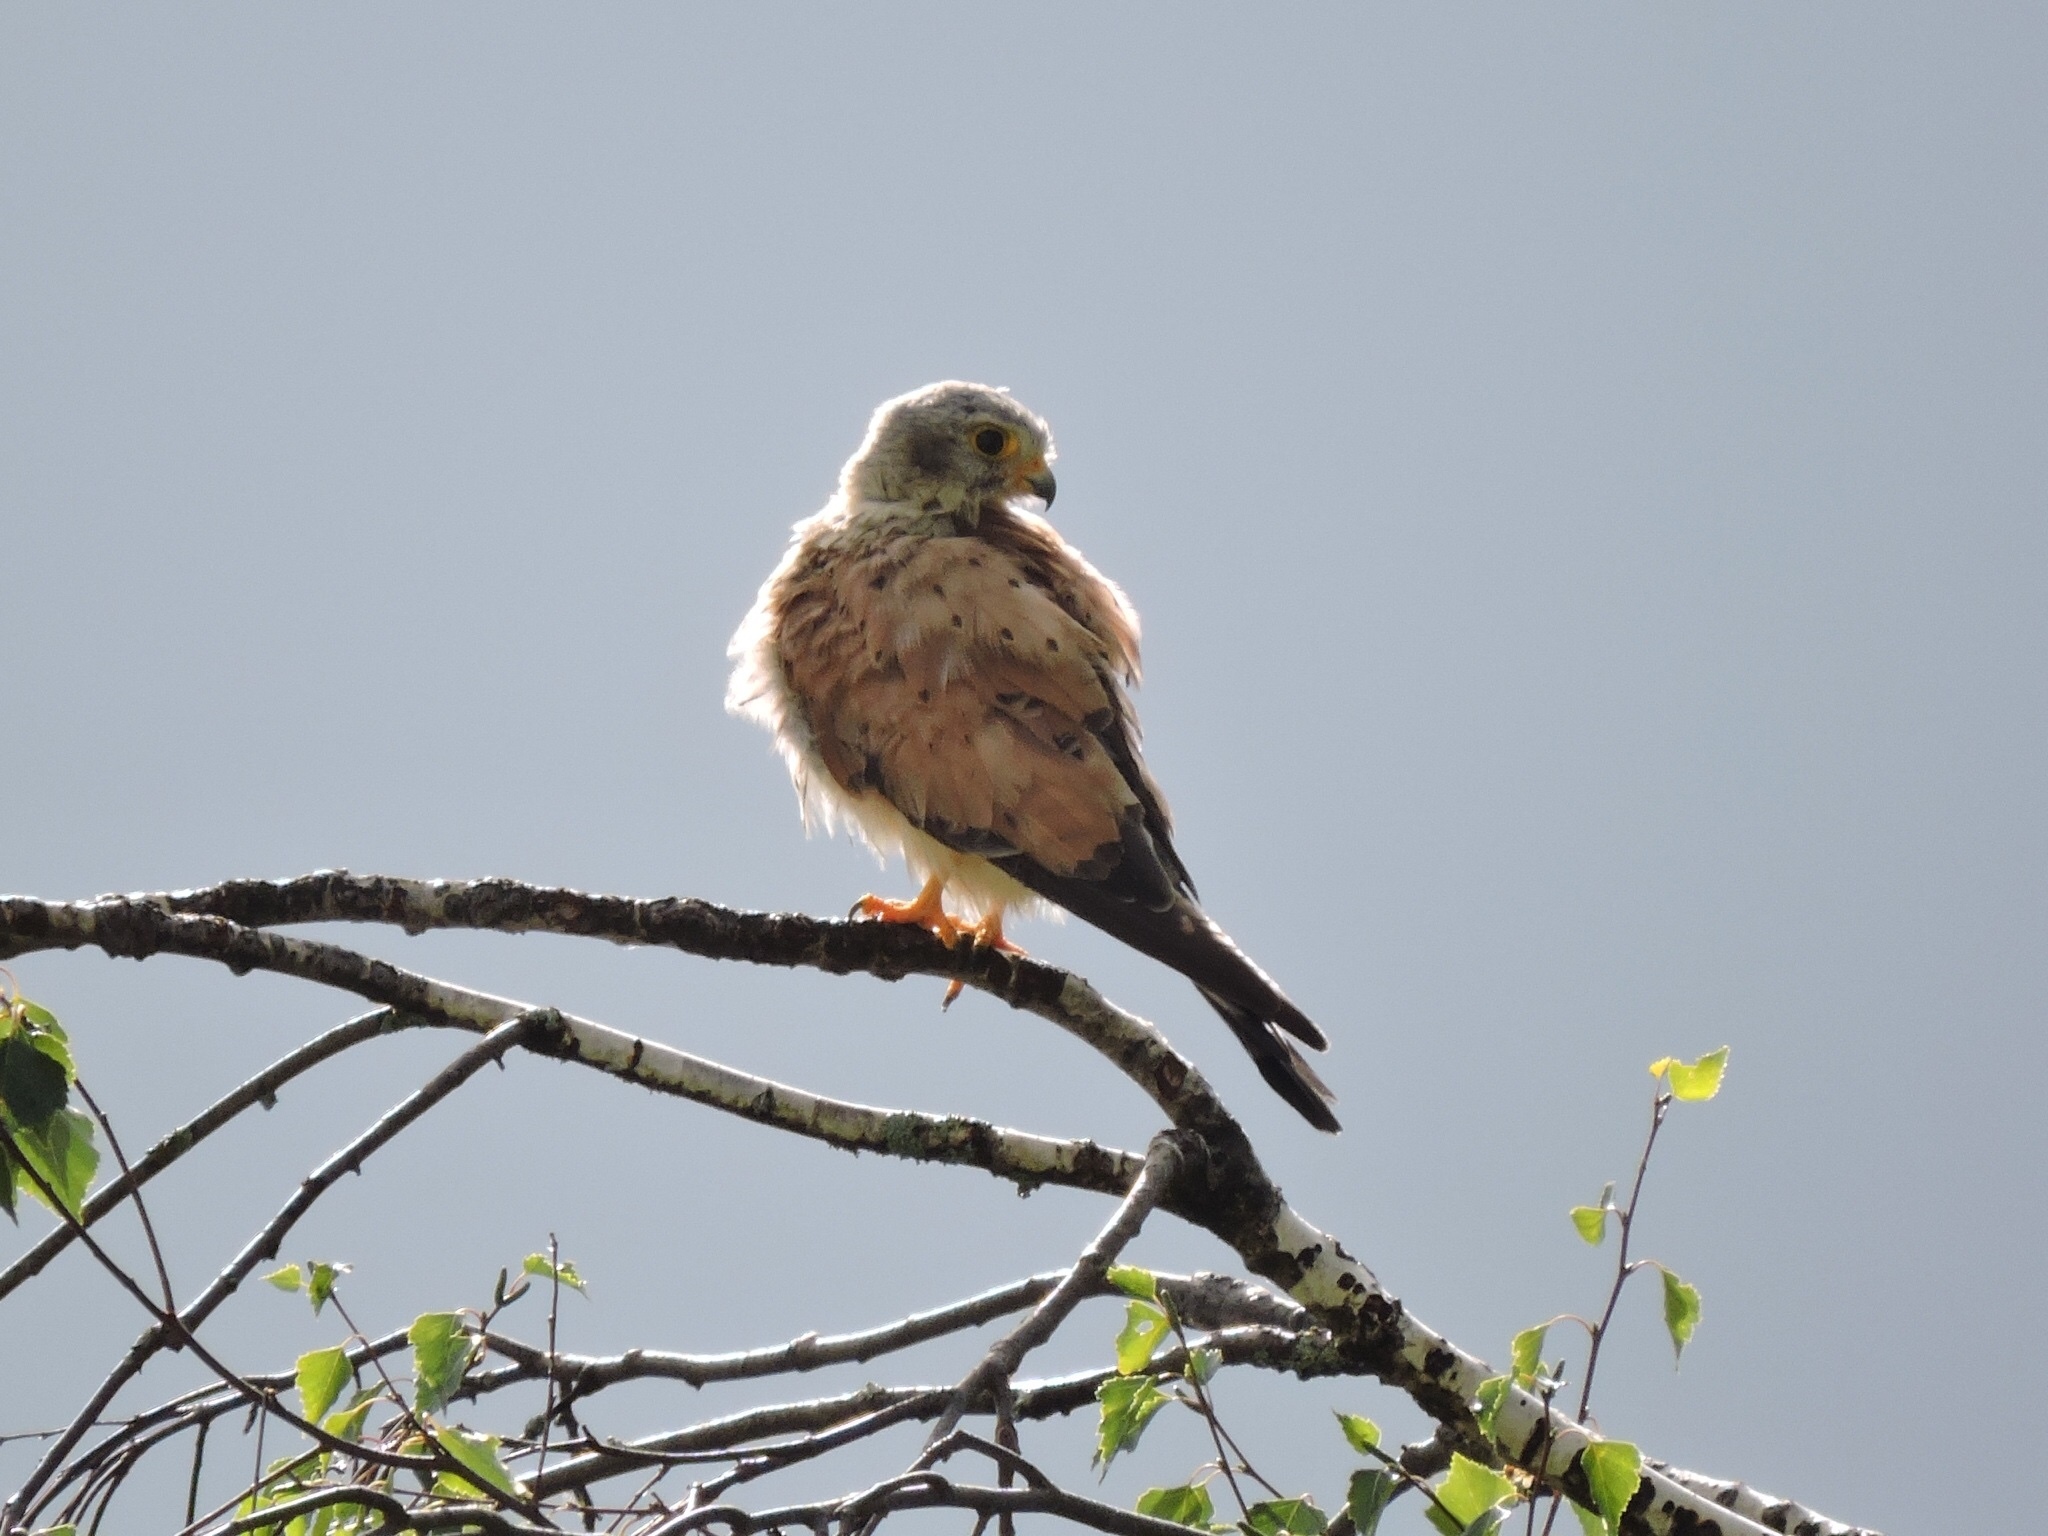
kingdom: Animalia
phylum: Chordata
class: Aves
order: Falconiformes
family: Falconidae
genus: Falco
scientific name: Falco tinnunculus
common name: Common kestrel
